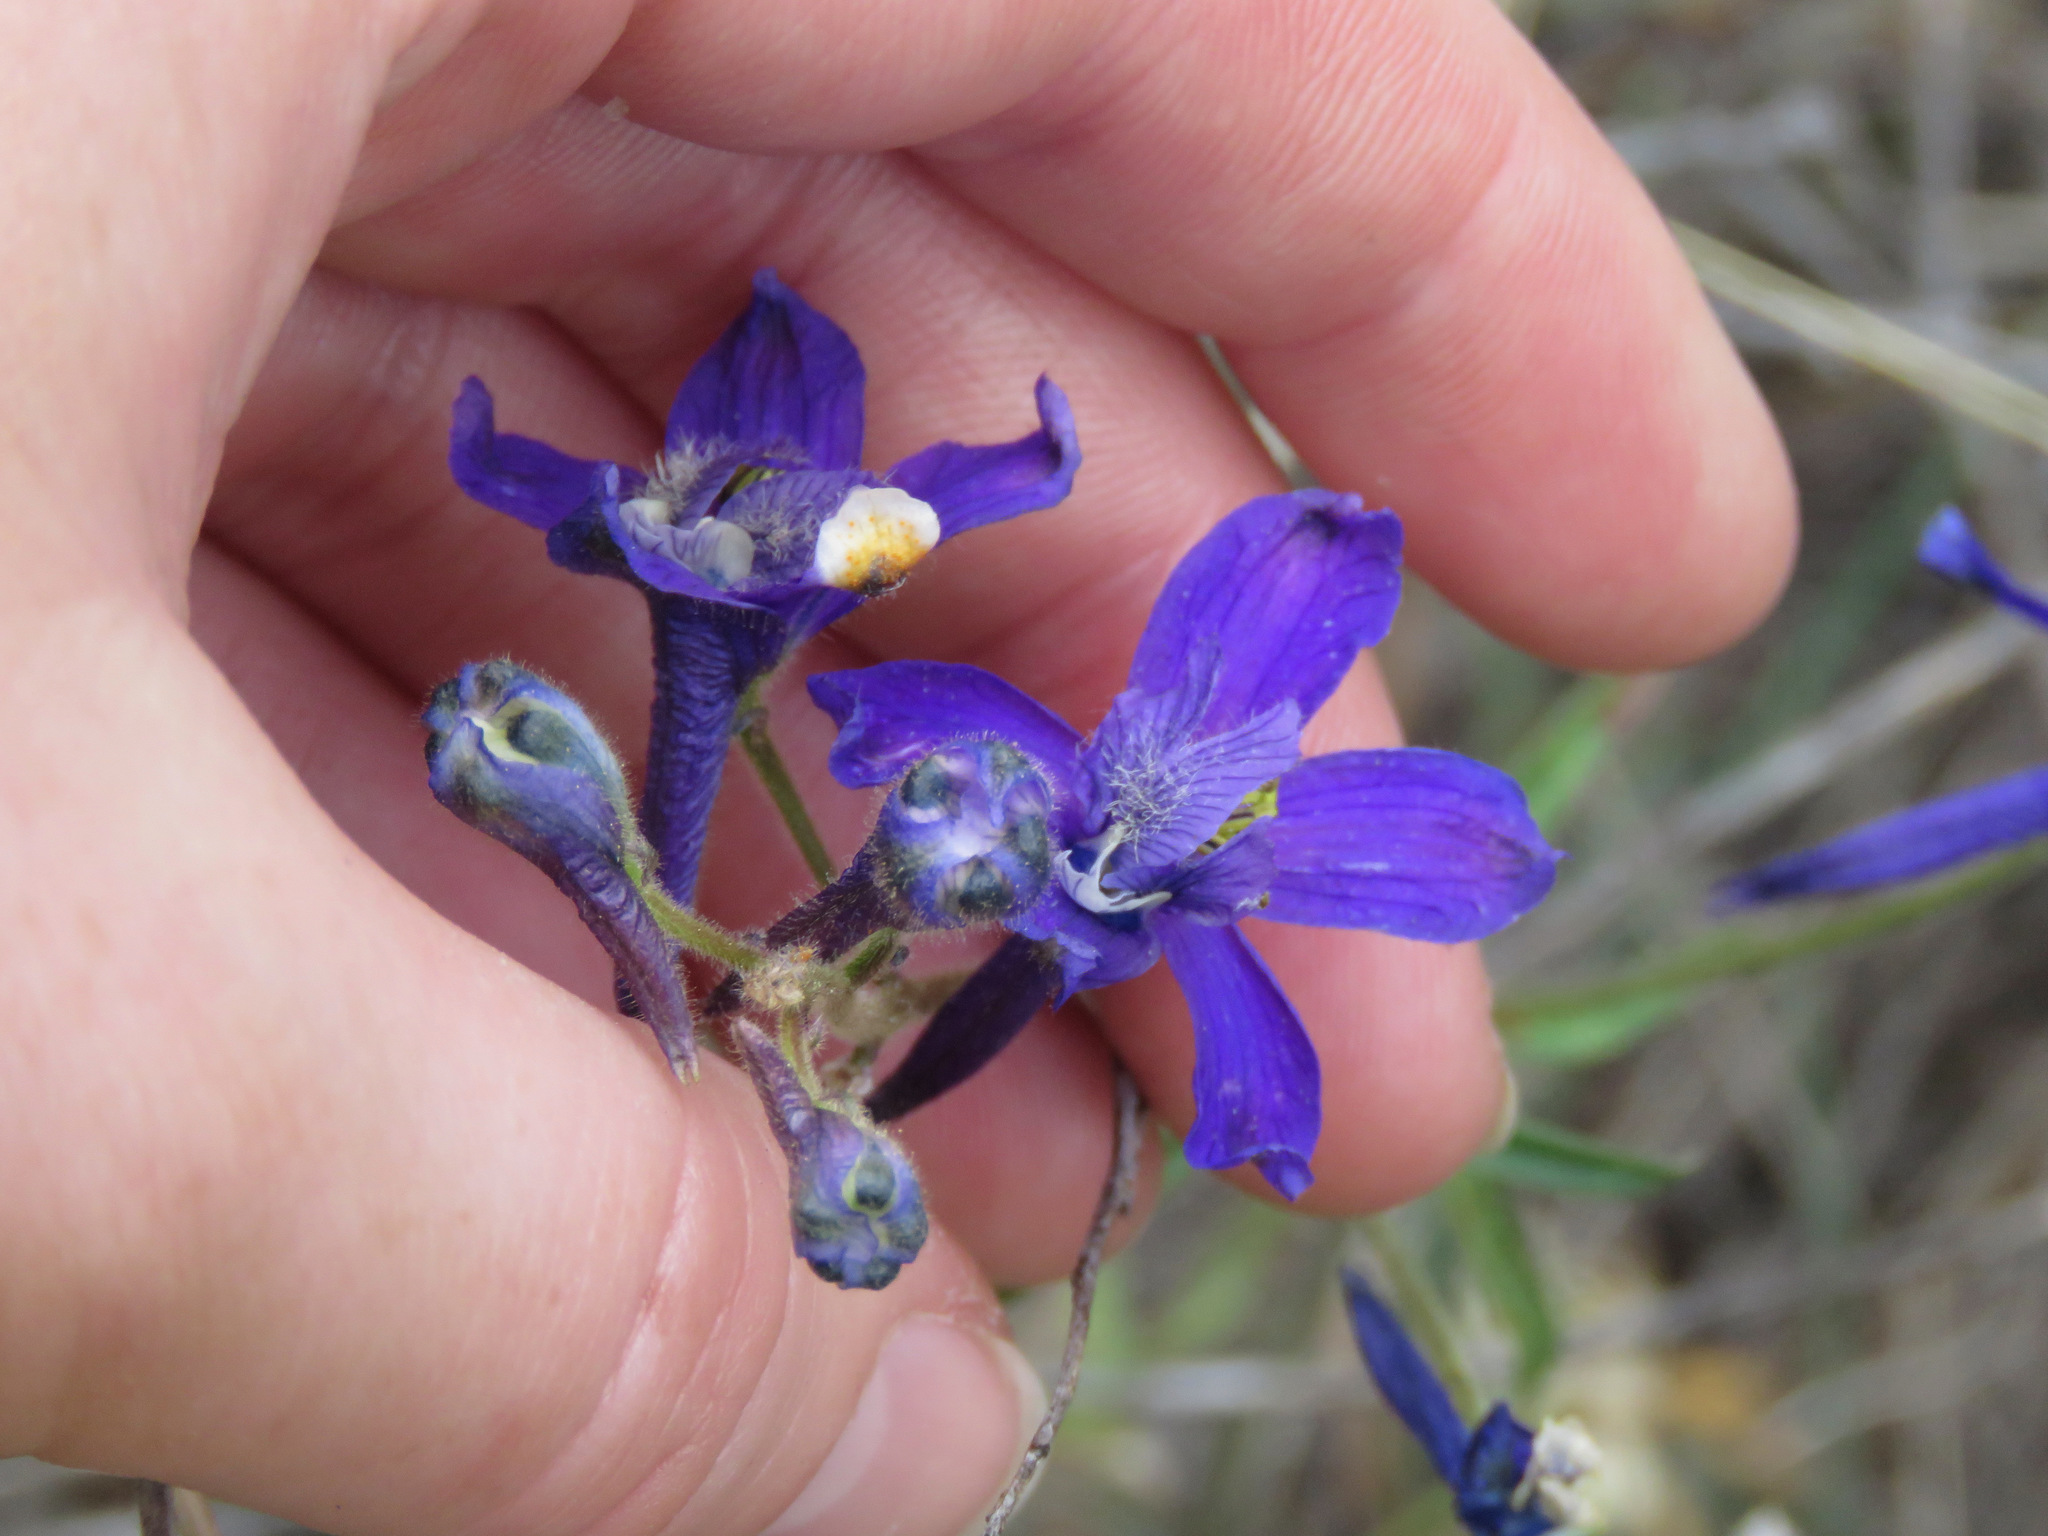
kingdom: Plantae
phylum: Tracheophyta
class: Magnoliopsida
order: Ranunculales
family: Ranunculaceae
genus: Delphinium
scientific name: Delphinium nuttallianum
